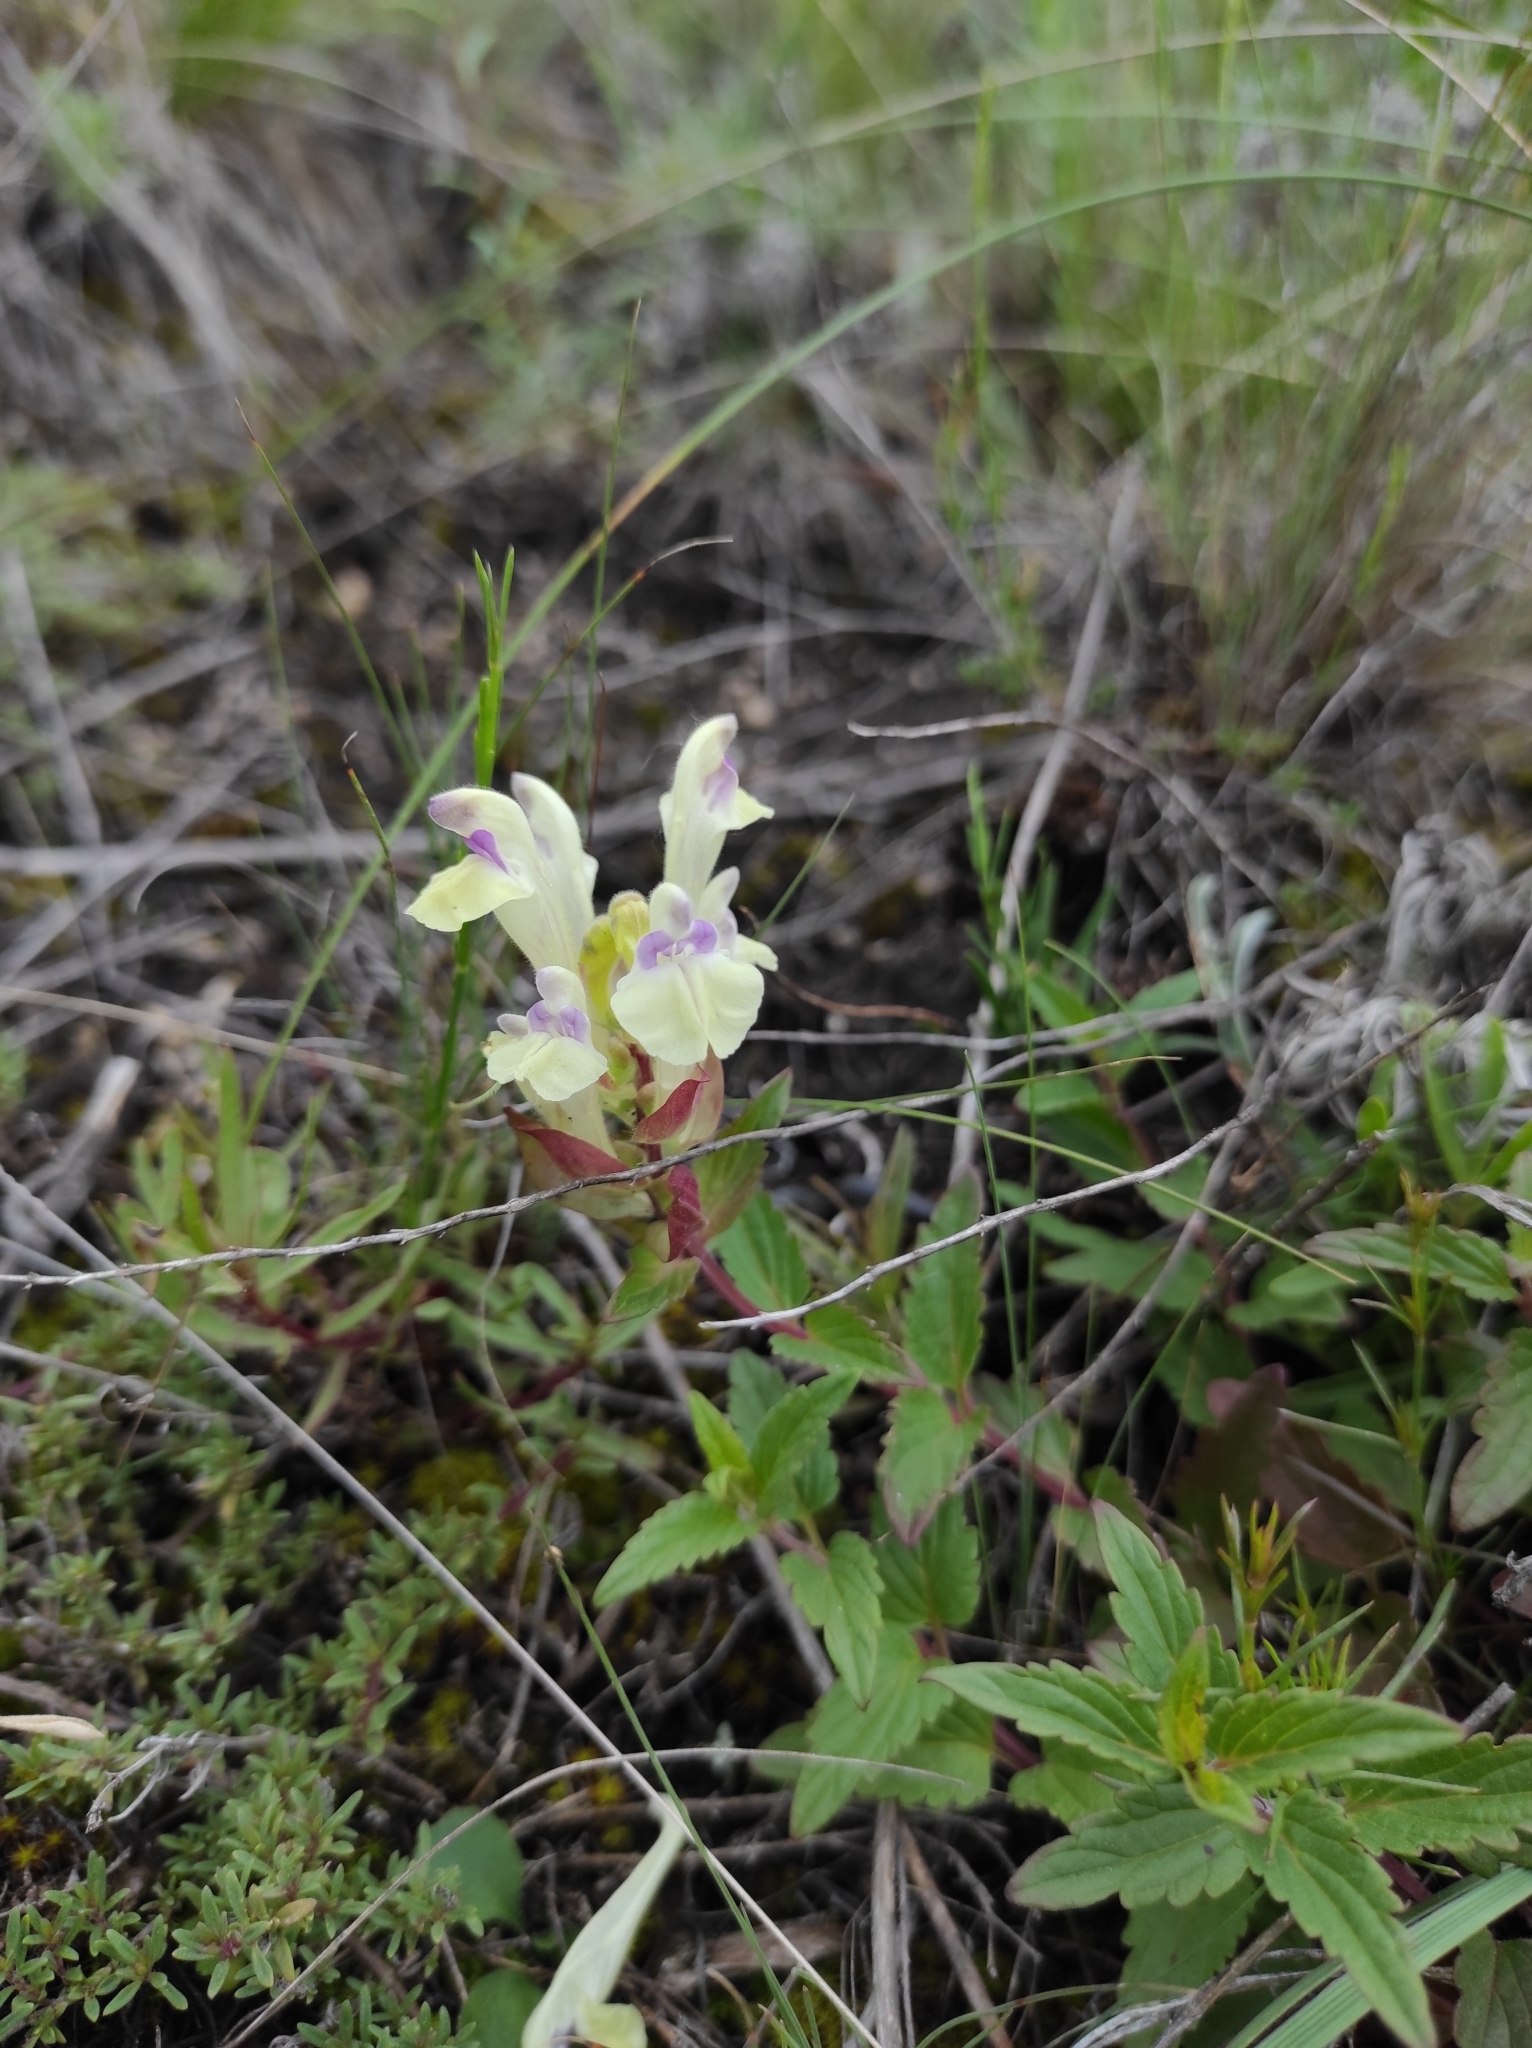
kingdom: Plantae
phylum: Tracheophyta
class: Magnoliopsida
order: Lamiales
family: Lamiaceae
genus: Scutellaria
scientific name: Scutellaria supina
